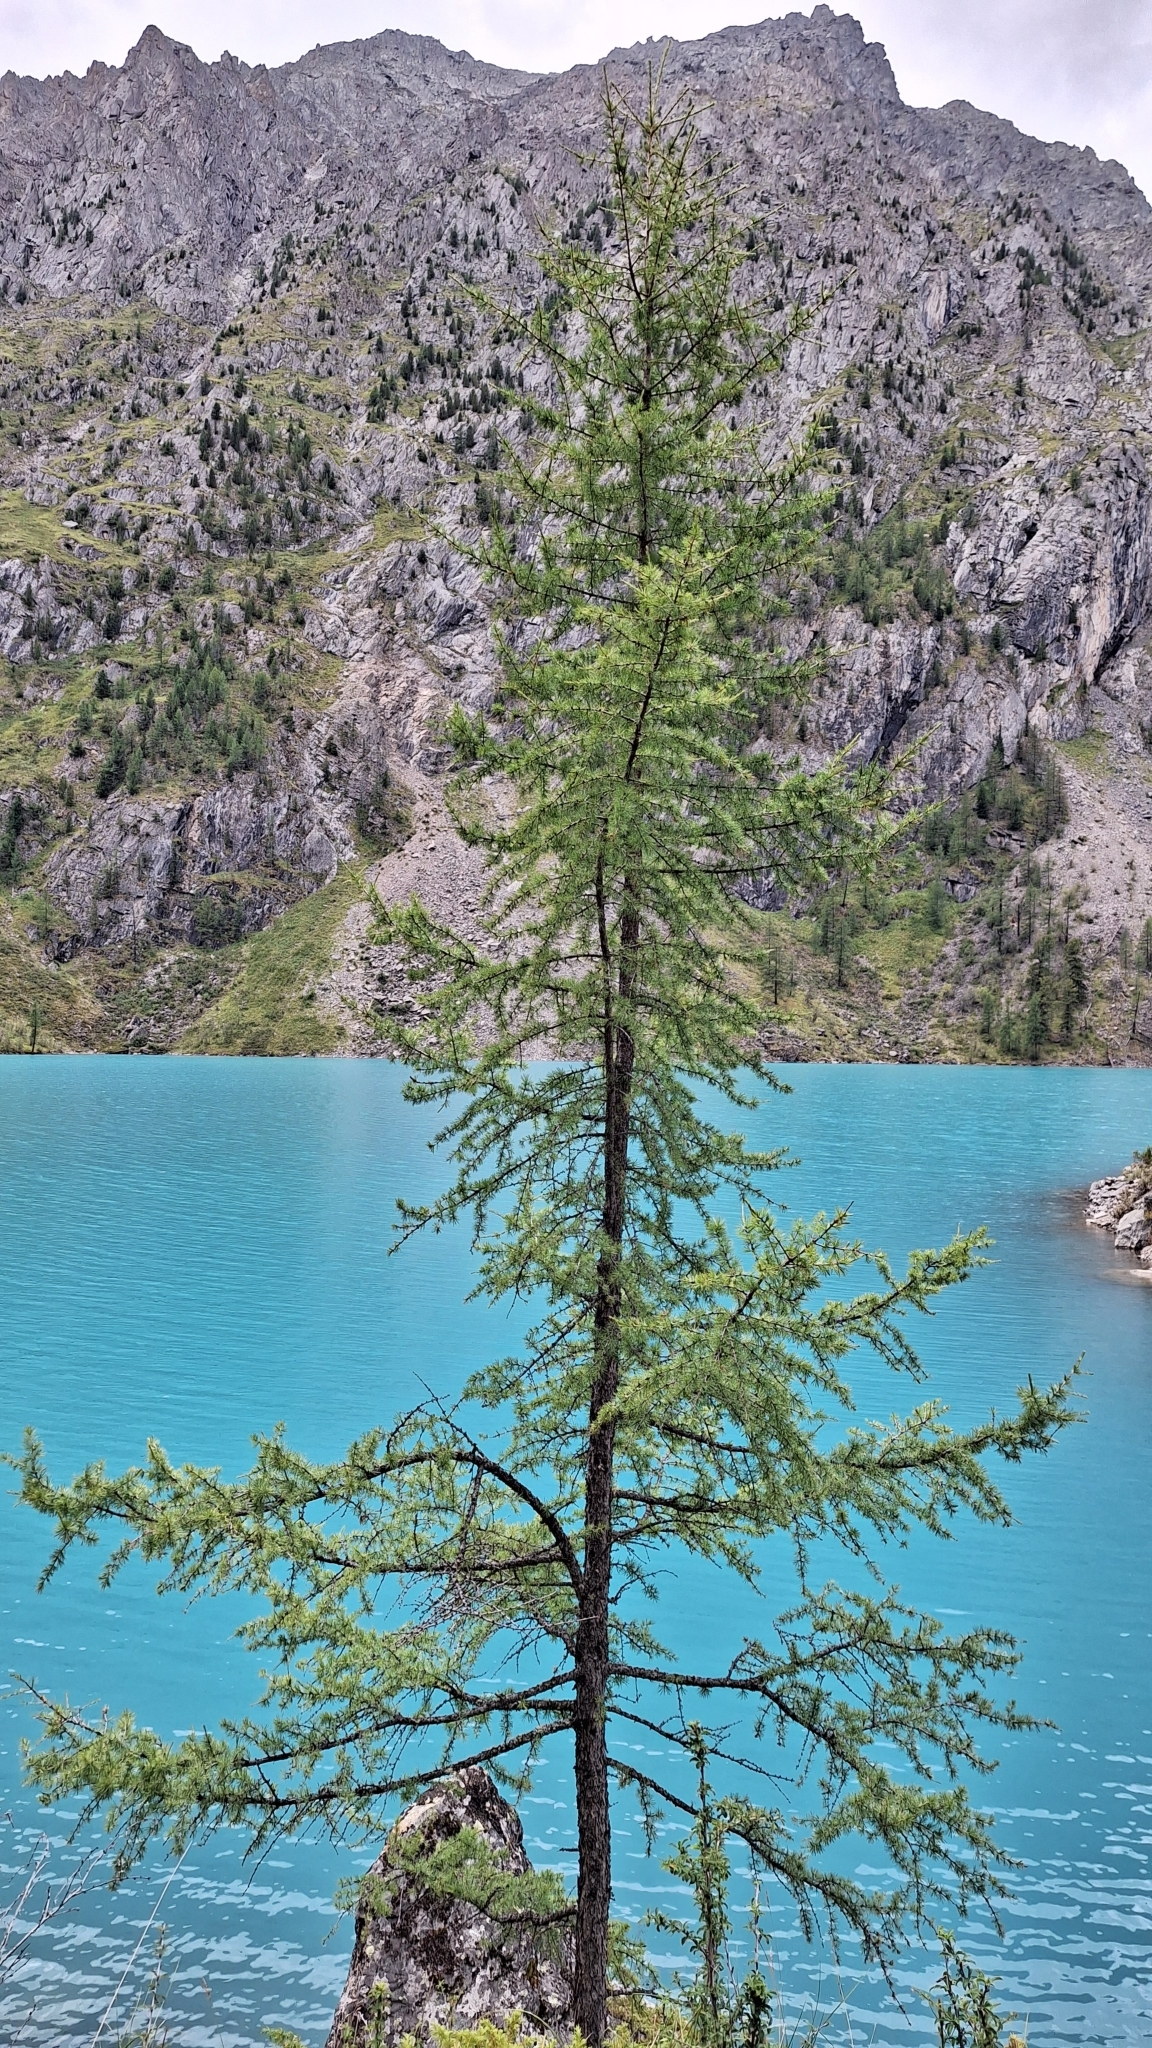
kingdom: Plantae
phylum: Tracheophyta
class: Pinopsida
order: Pinales
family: Pinaceae
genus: Larix
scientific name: Larix sibirica
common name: Siberian larch
